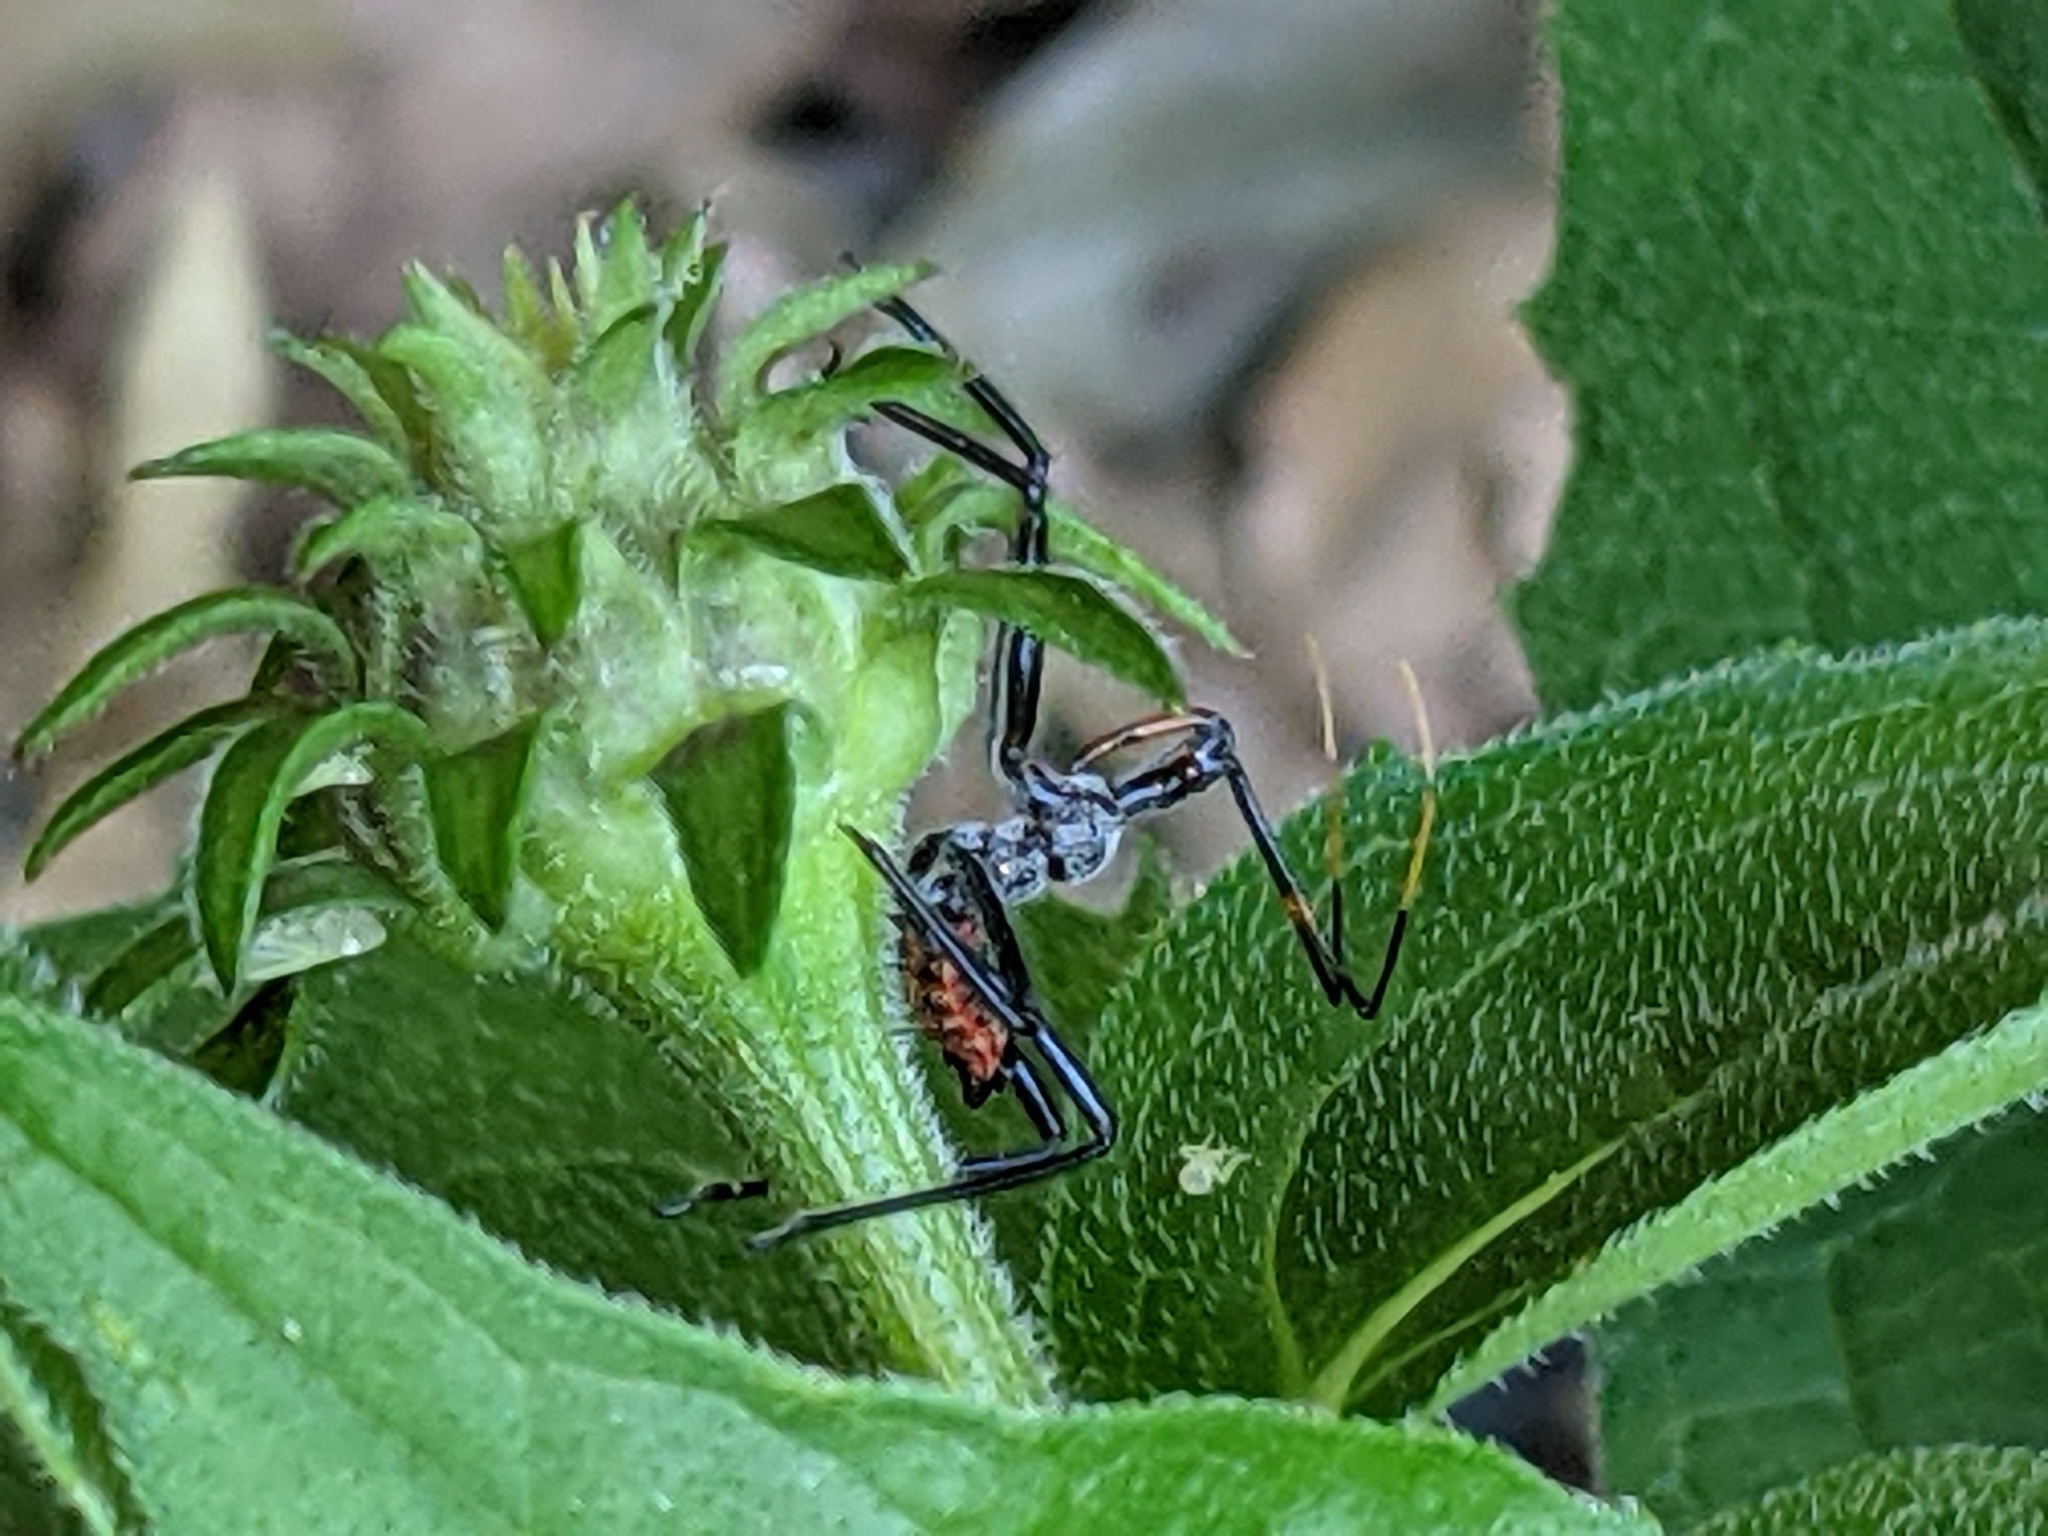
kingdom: Animalia
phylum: Arthropoda
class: Insecta
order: Hemiptera
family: Reduviidae
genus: Arilus
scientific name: Arilus cristatus
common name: North american wheel bug
